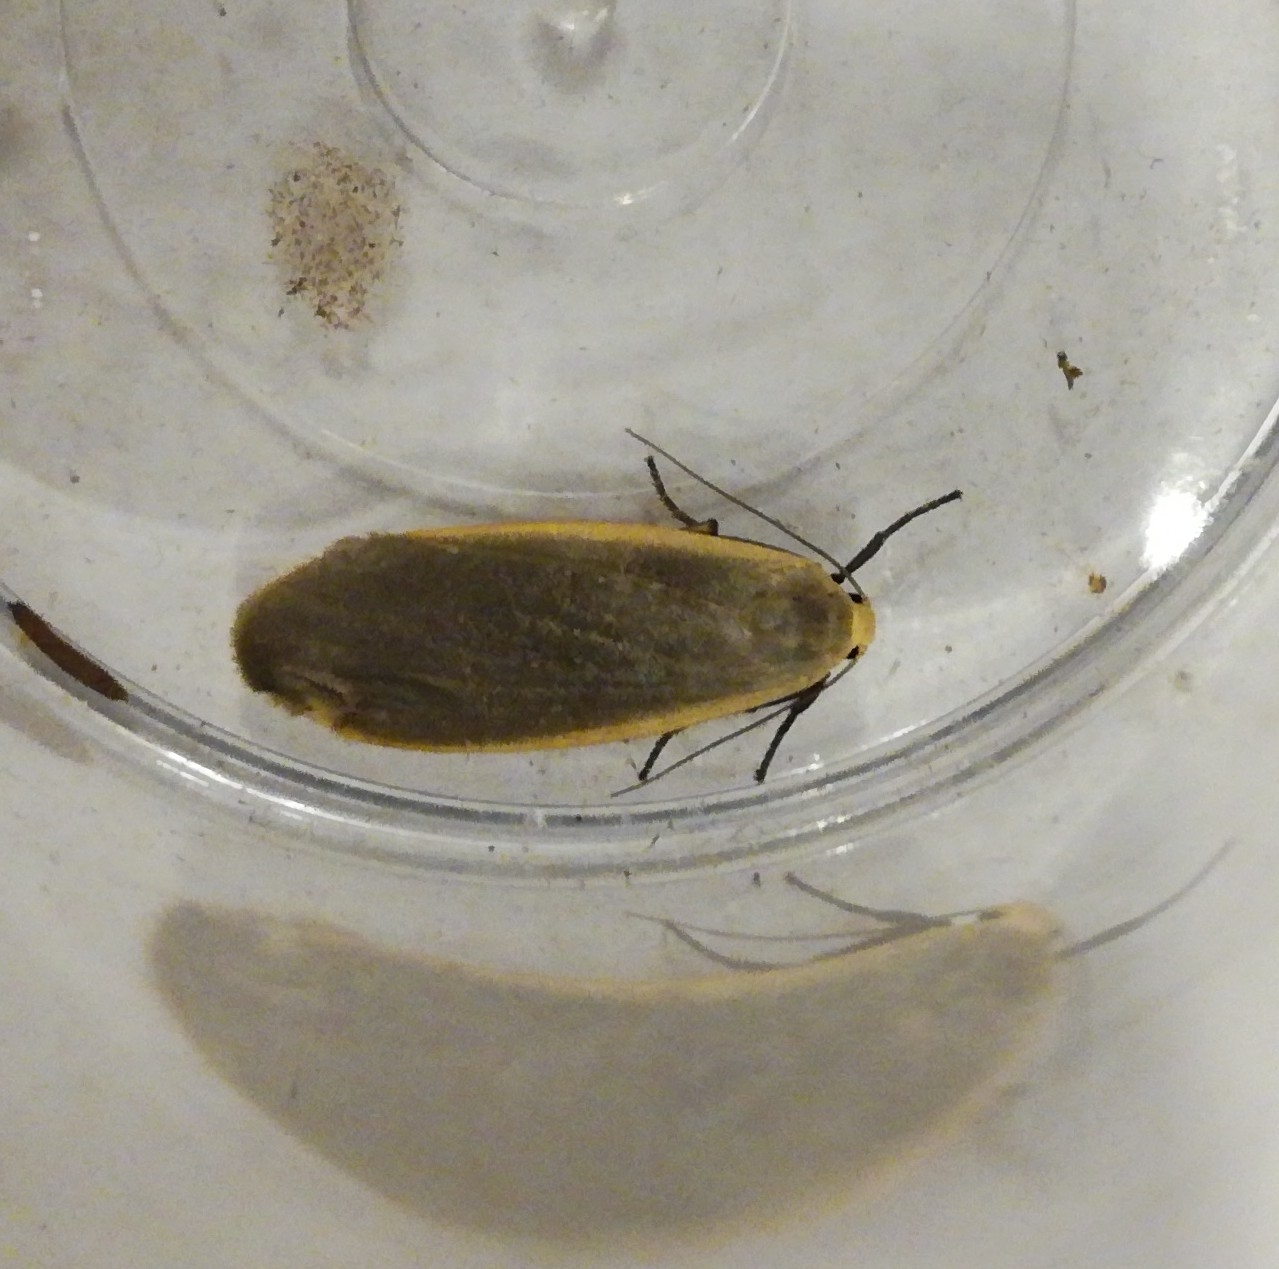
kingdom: Animalia
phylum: Arthropoda
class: Insecta
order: Lepidoptera
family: Erebidae
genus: Collita
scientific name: Collita griseola
